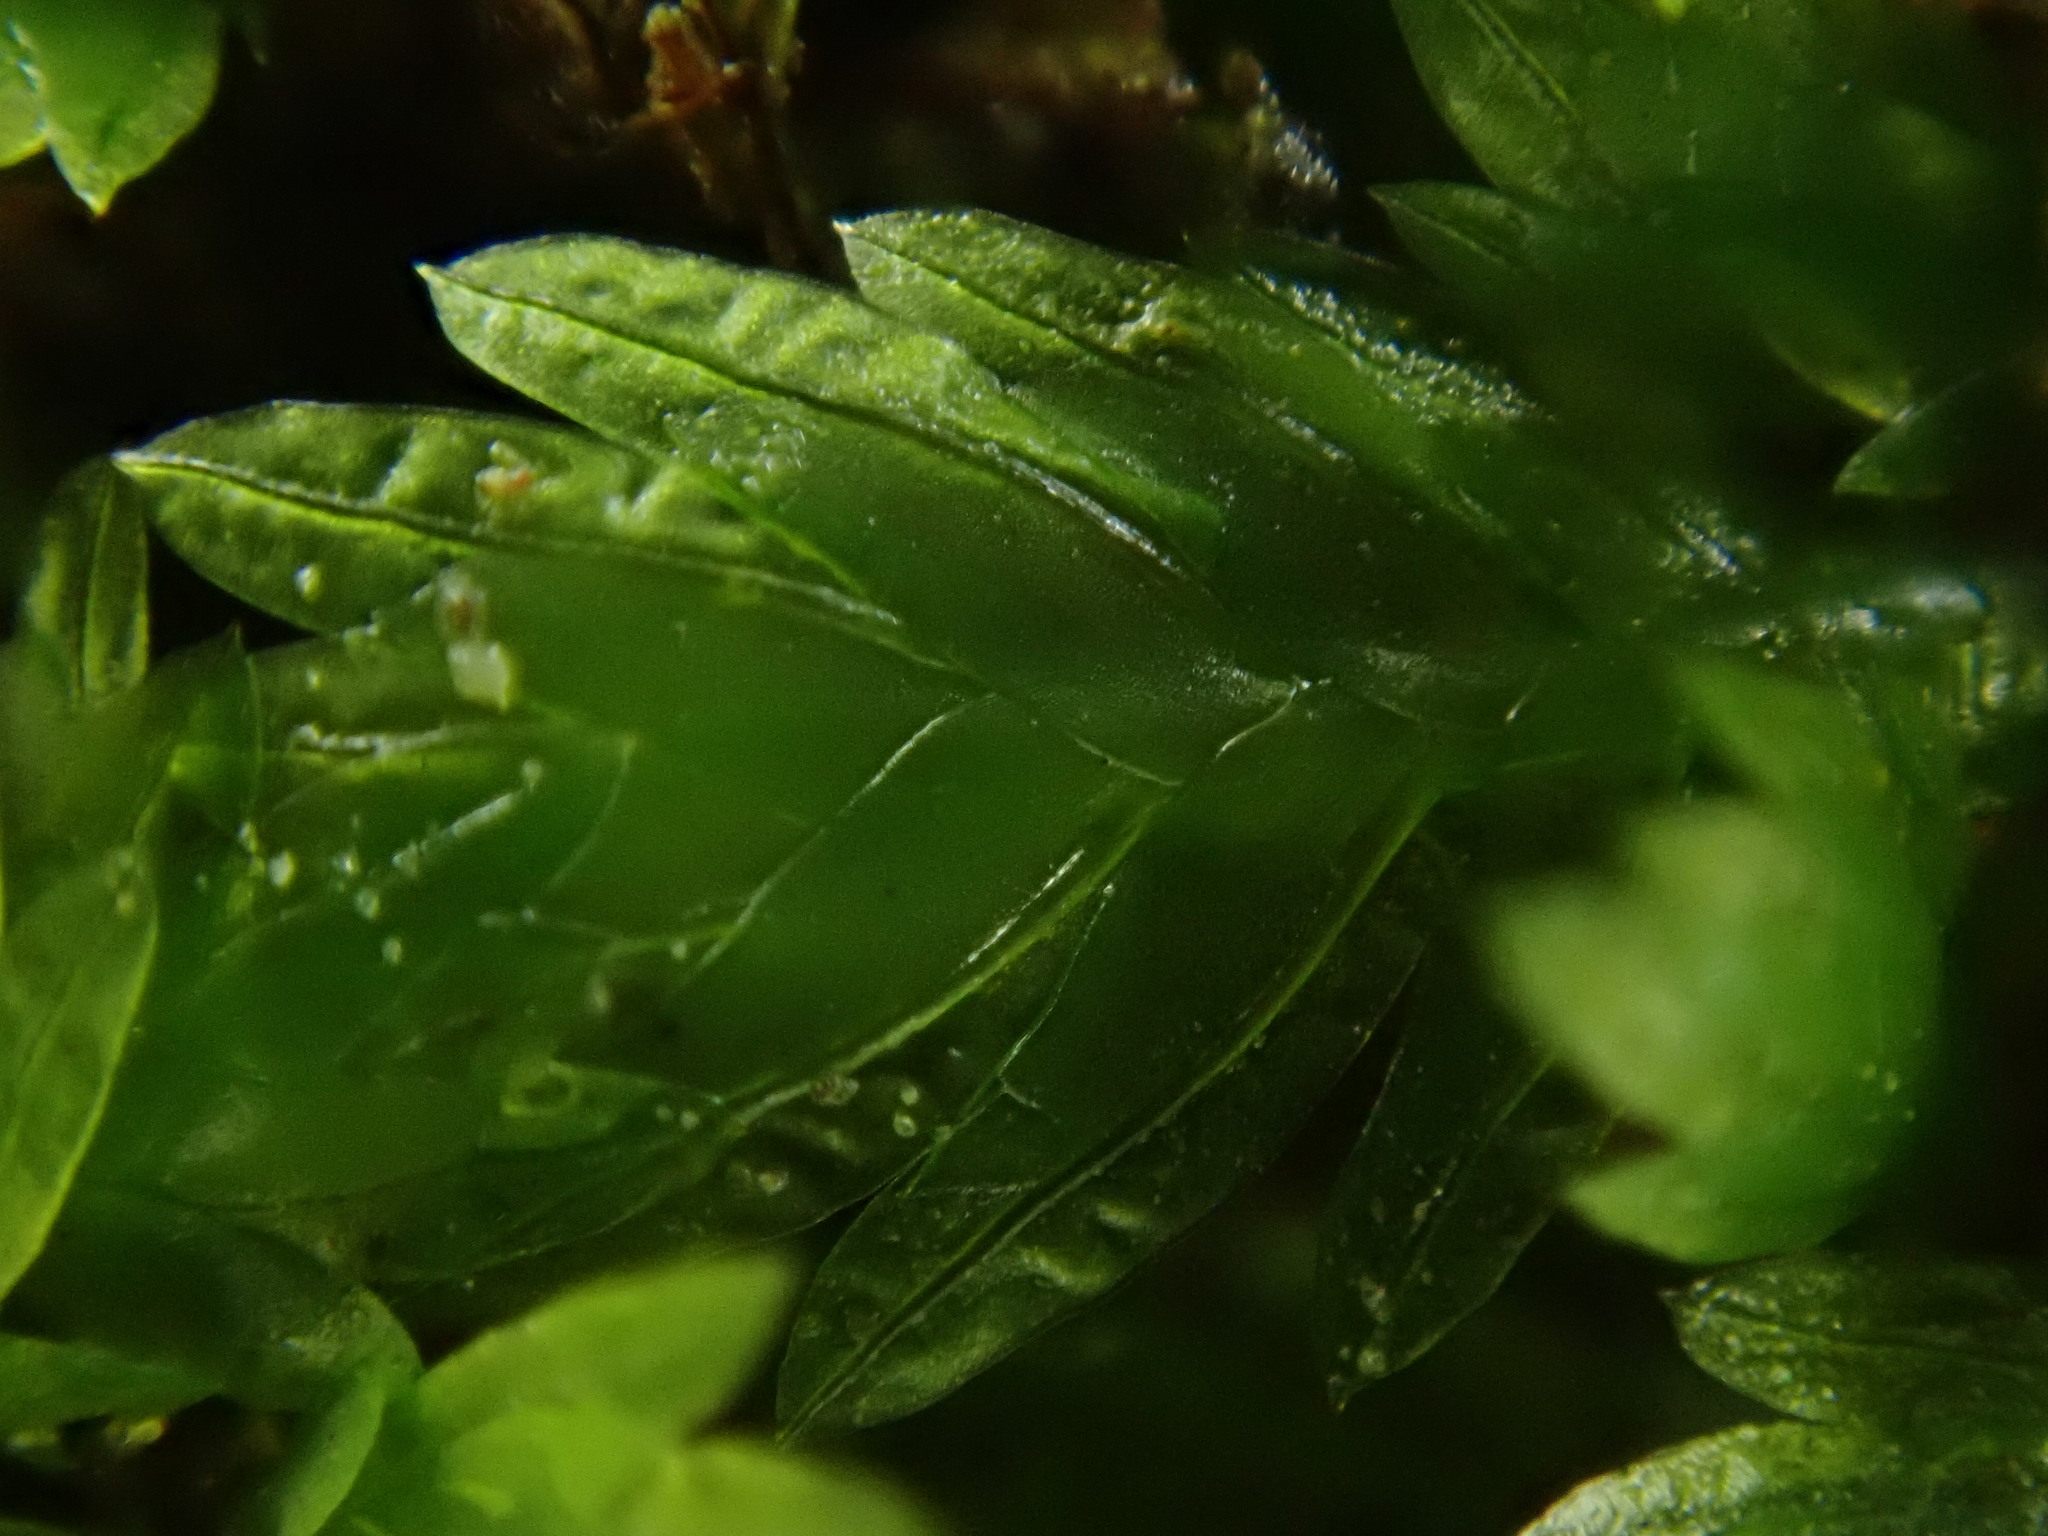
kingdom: Plantae
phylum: Bryophyta
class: Bryopsida
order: Dicranales
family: Fissidentaceae
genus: Fissidens
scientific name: Fissidens taxifolius
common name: Yew-leaved pocket moss
